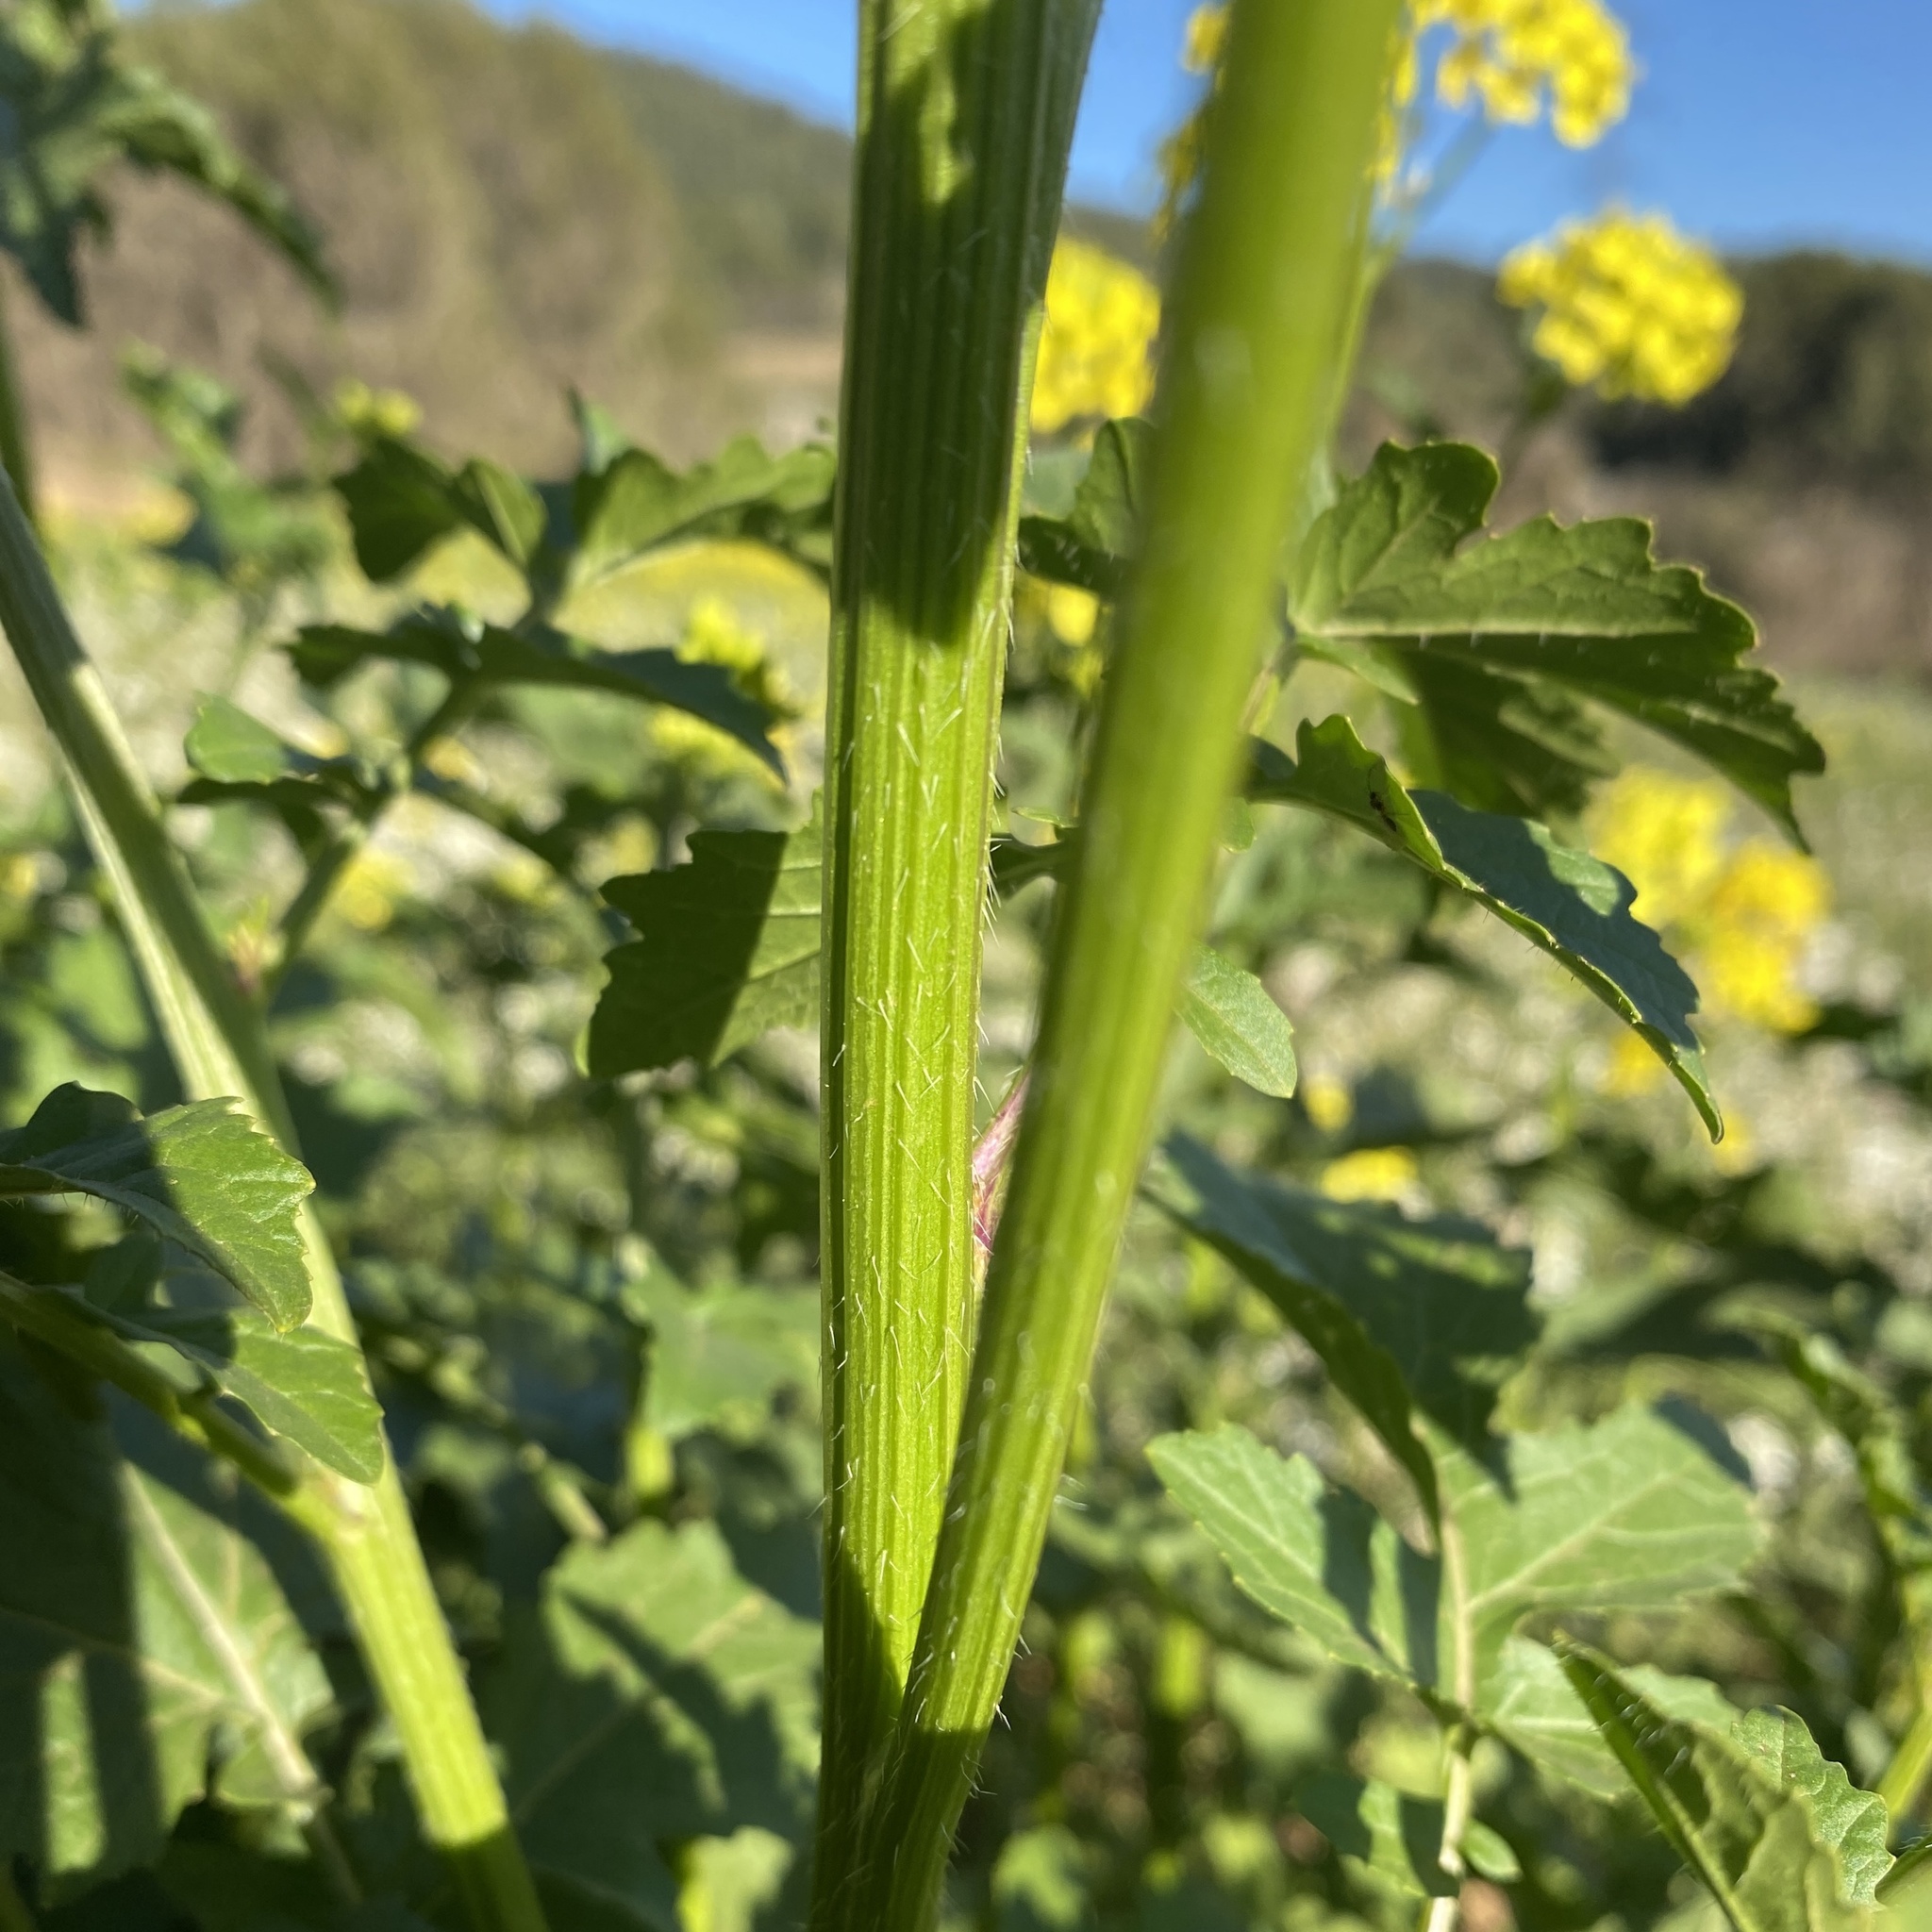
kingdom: Plantae
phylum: Tracheophyta
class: Magnoliopsida
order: Brassicales
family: Brassicaceae
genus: Sinapis
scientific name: Sinapis alba
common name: White mustard
